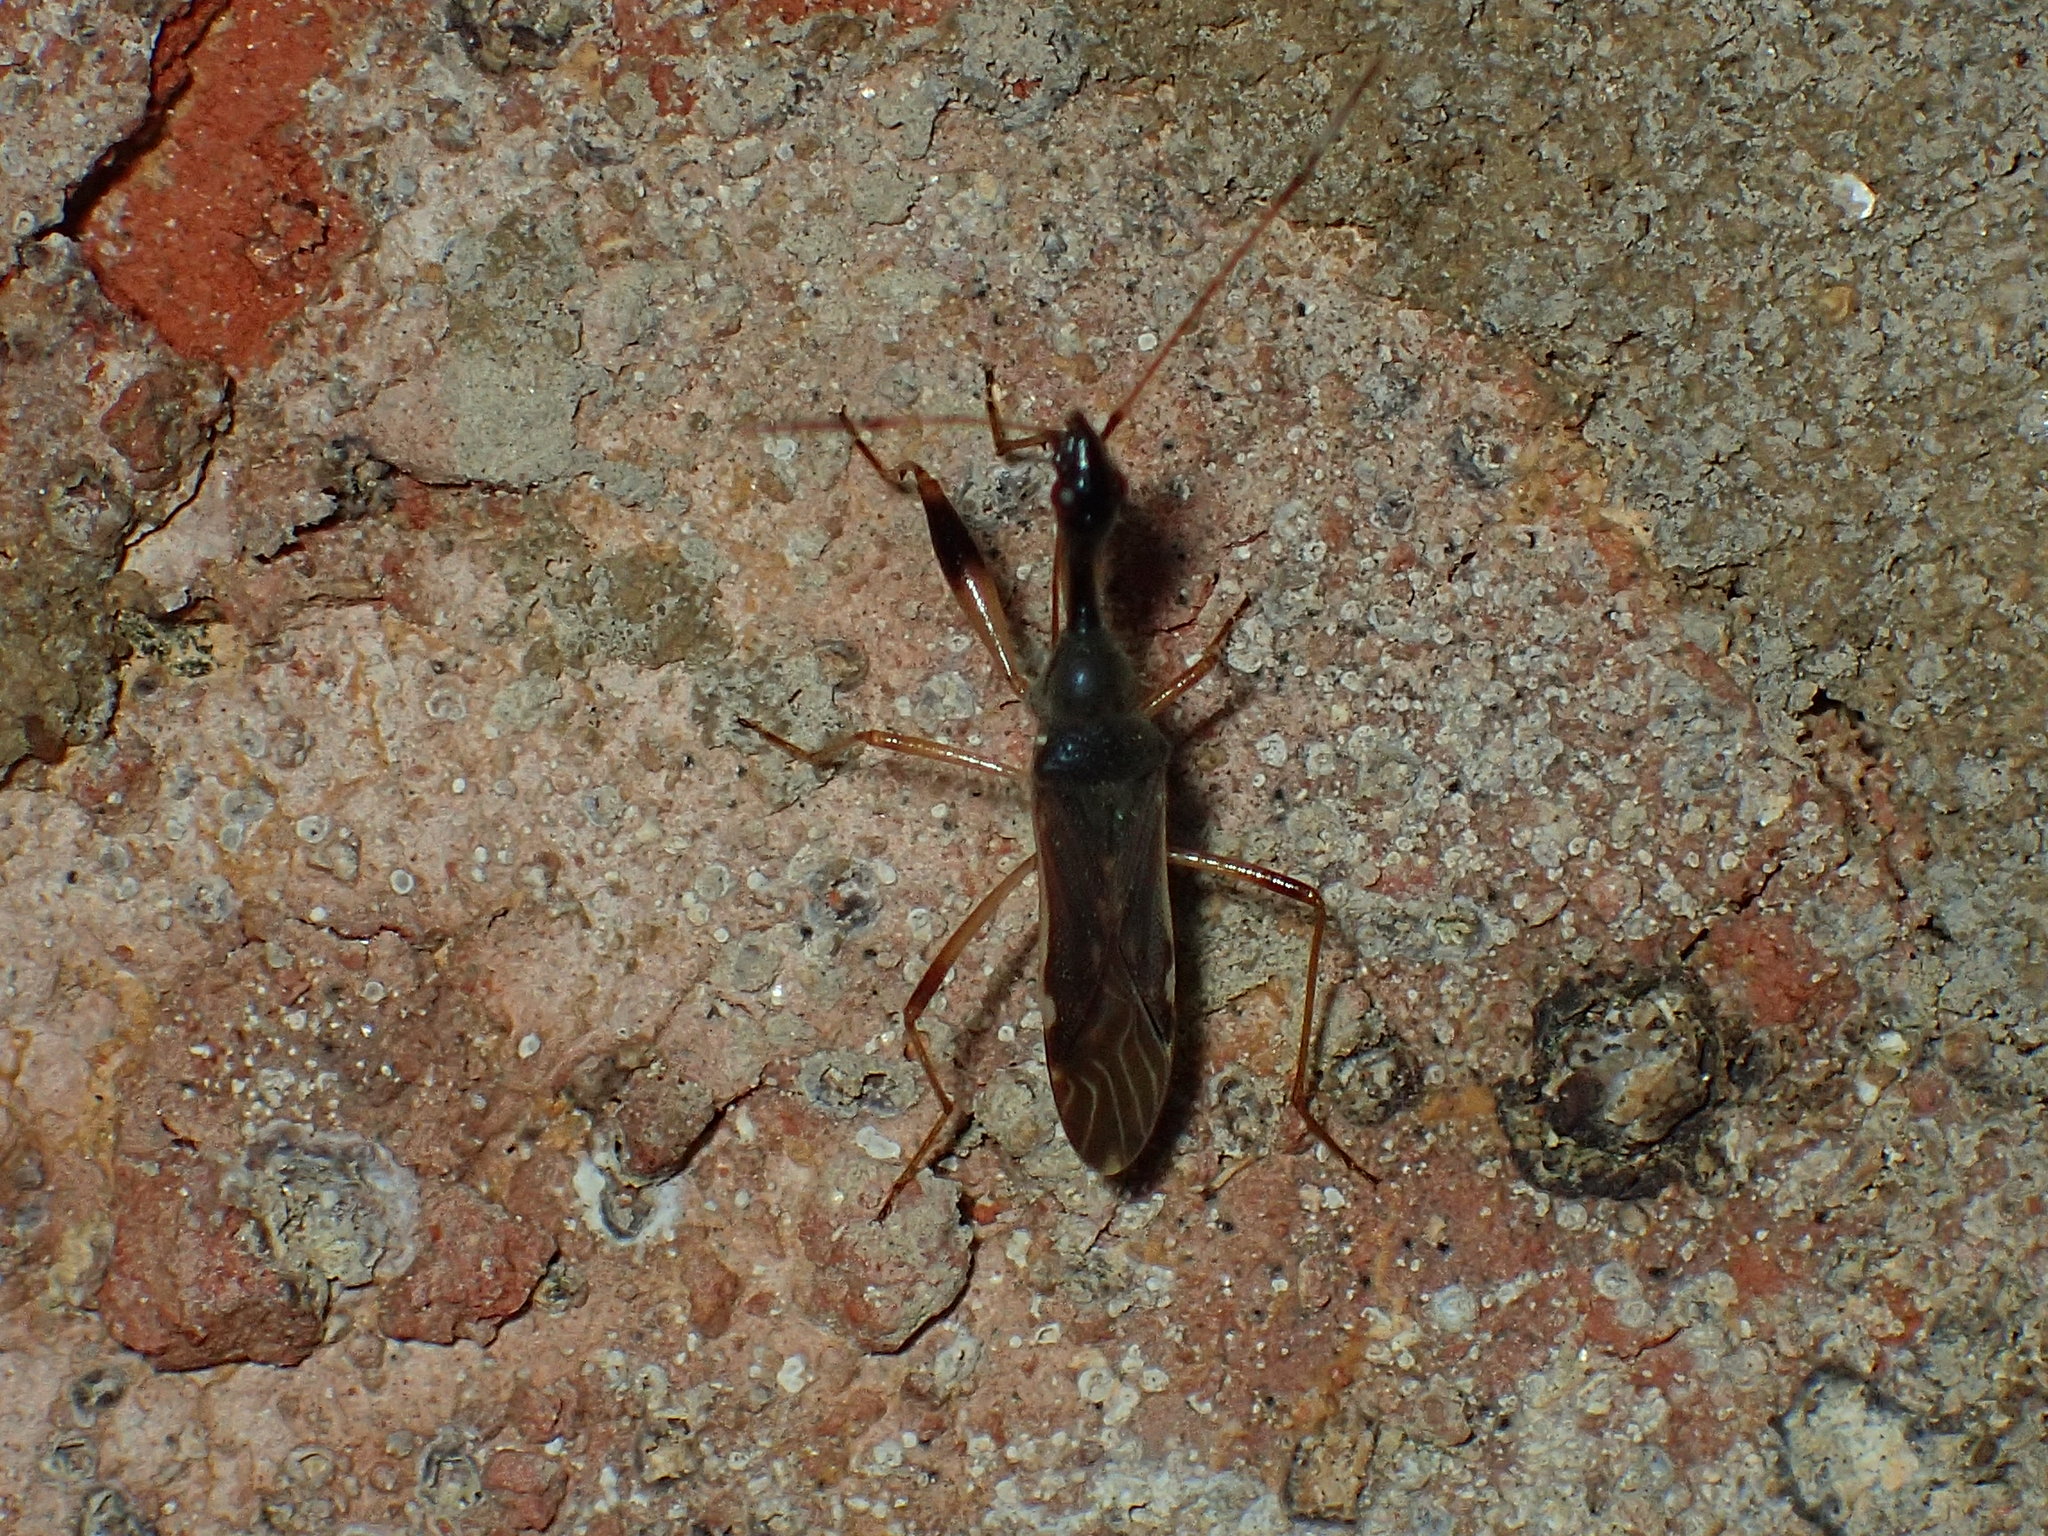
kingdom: Animalia
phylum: Arthropoda
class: Insecta
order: Hemiptera
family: Rhyparochromidae
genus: Myodocha
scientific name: Myodocha serripes
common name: Long-necked seed bug
